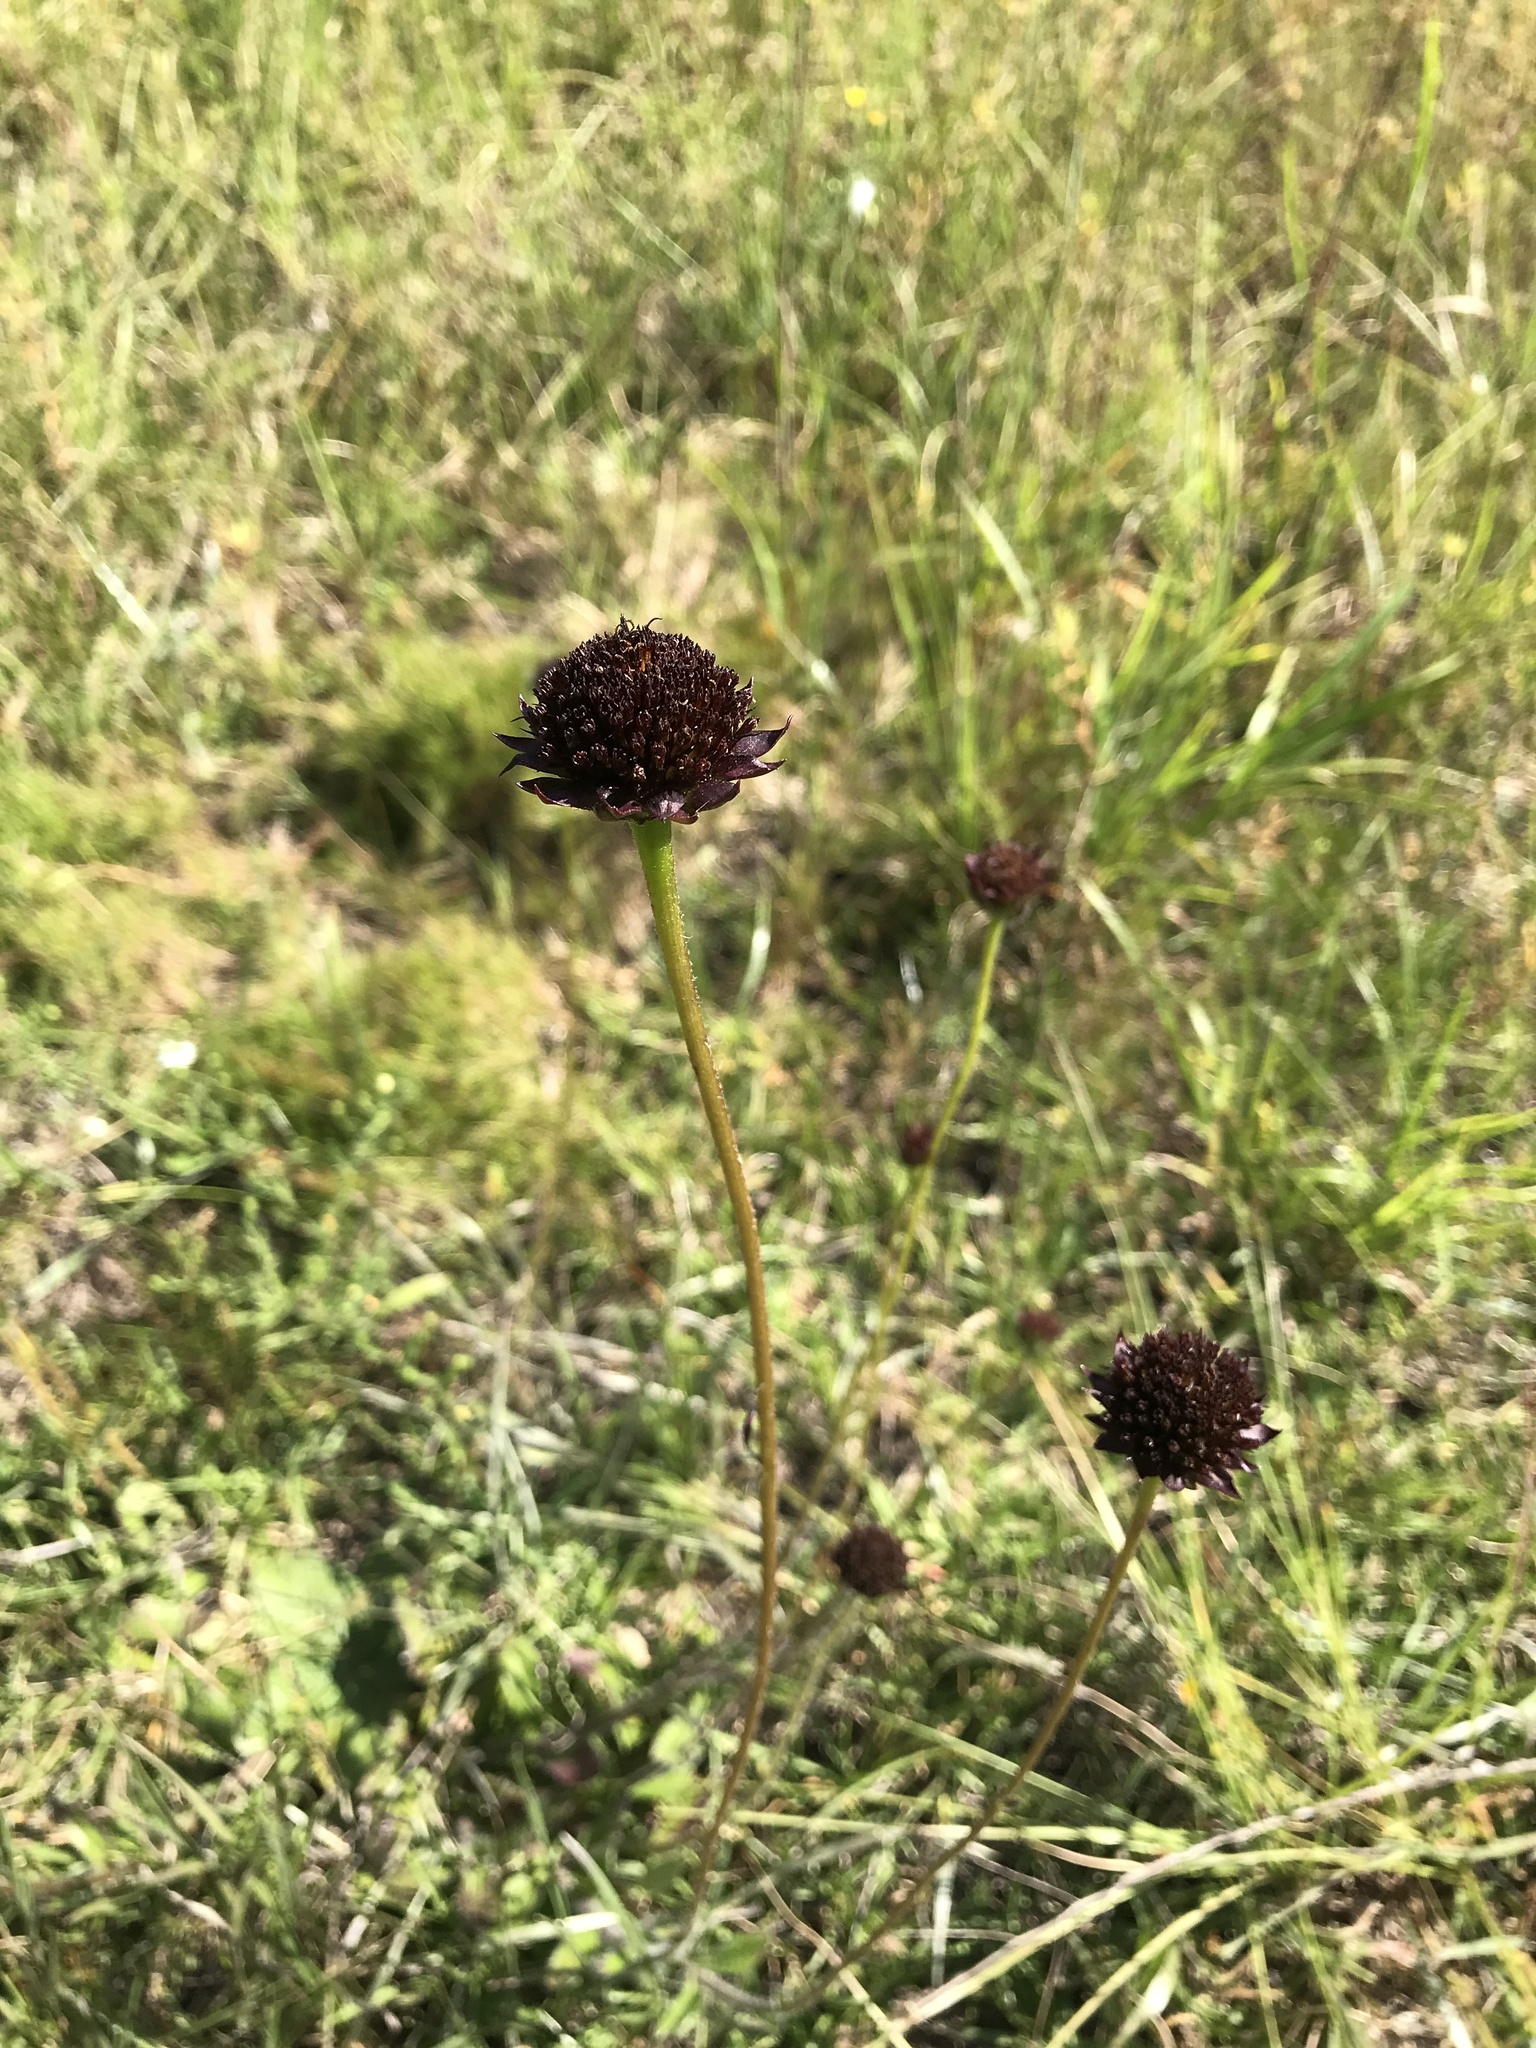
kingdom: Plantae
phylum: Tracheophyta
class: Magnoliopsida
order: Asterales
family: Asteraceae
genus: Helianthus
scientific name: Helianthus radula
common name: Pineland sunflower
